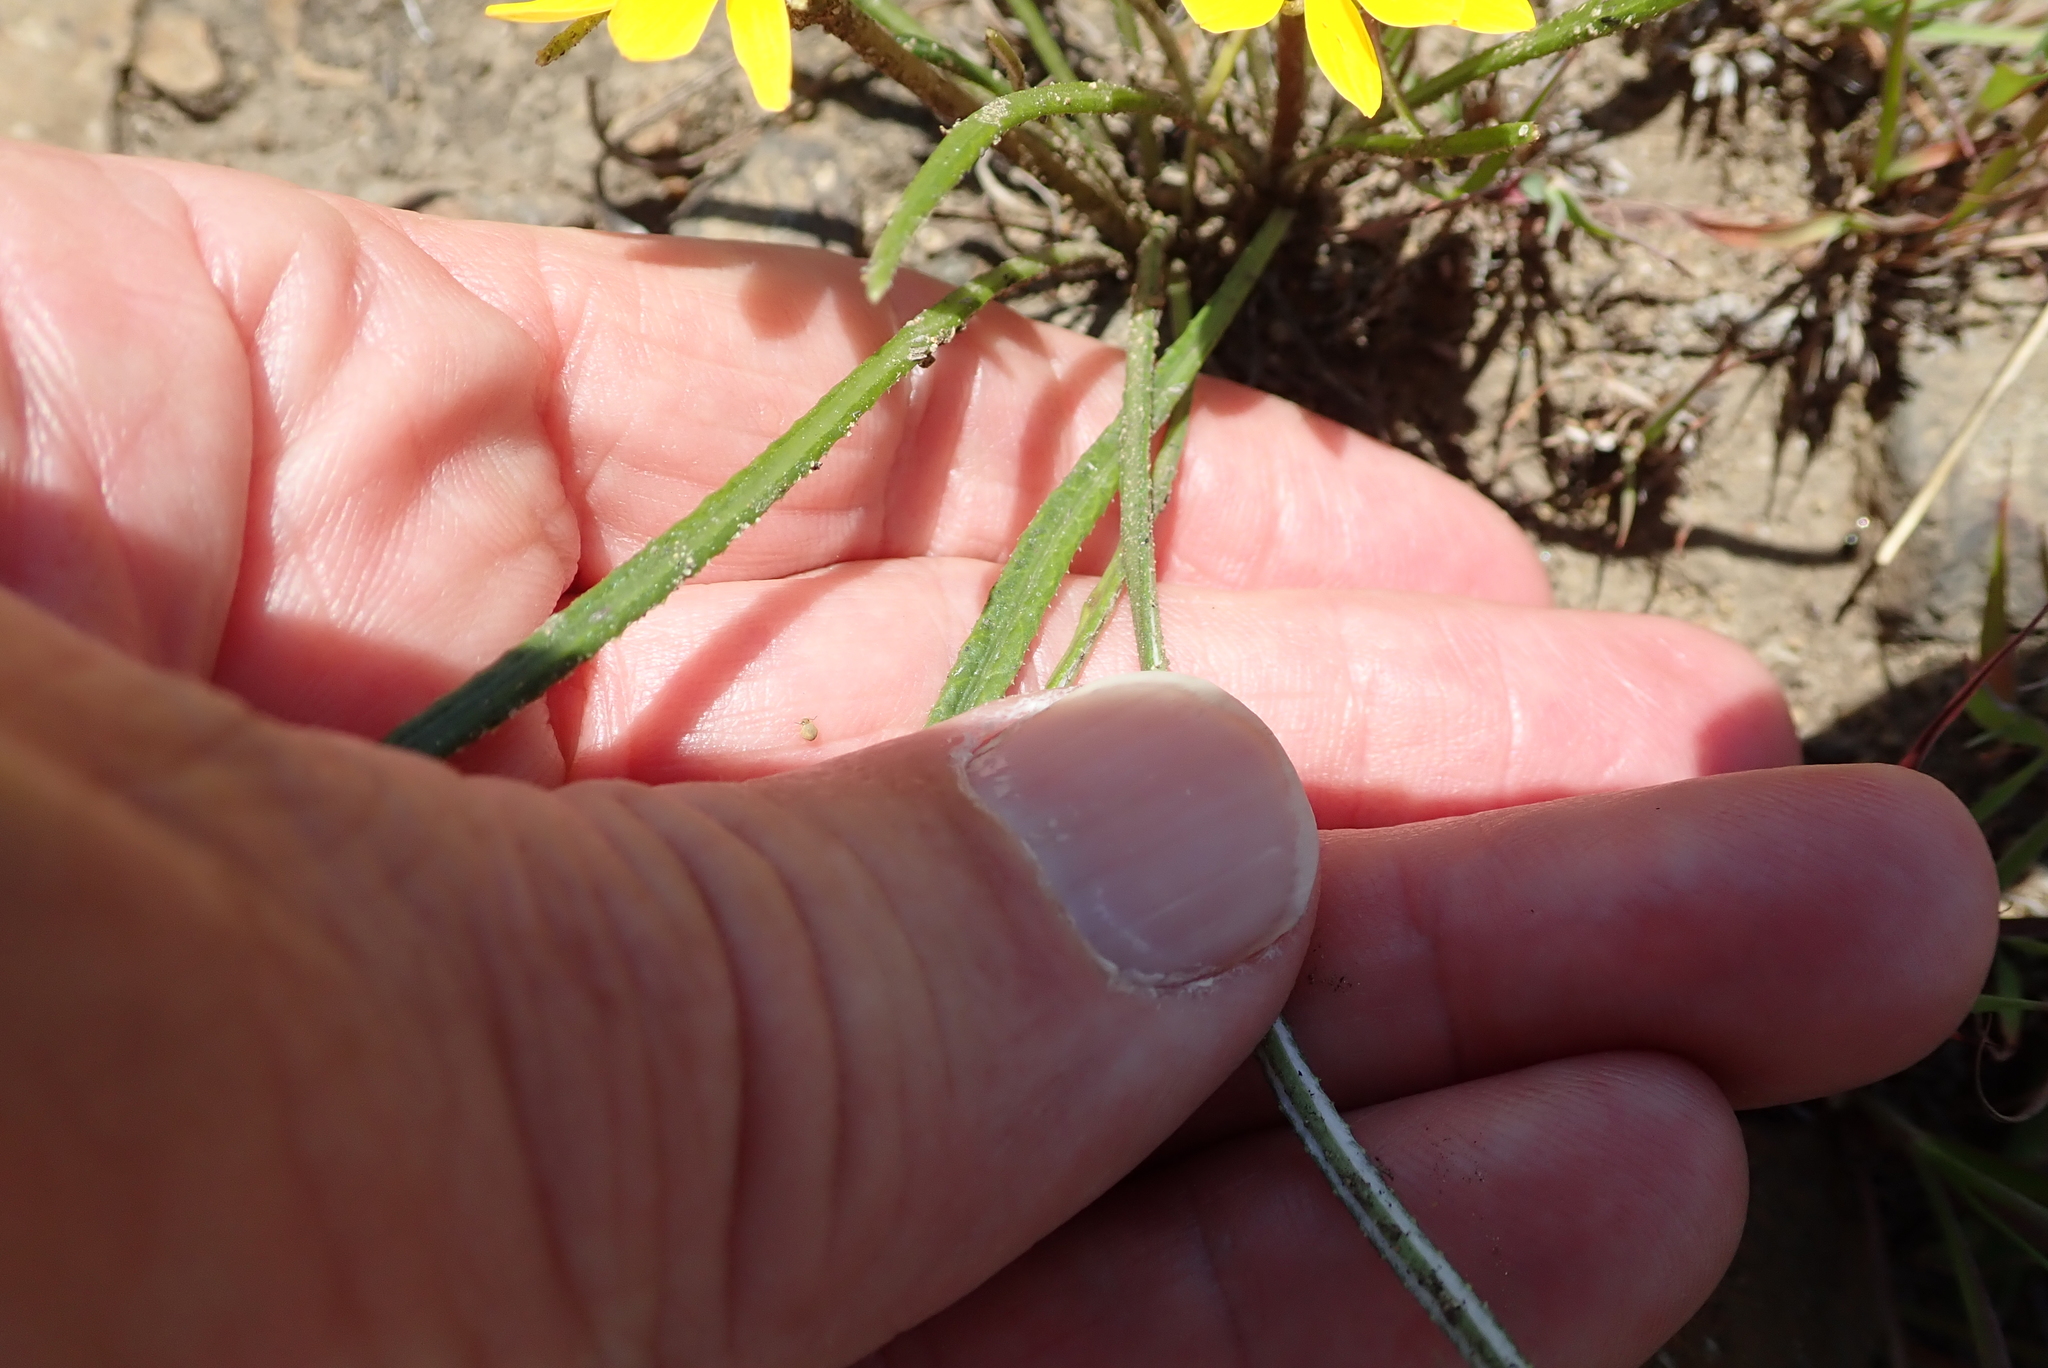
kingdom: Plantae
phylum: Tracheophyta
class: Magnoliopsida
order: Asterales
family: Asteraceae
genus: Gazania
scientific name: Gazania krebsiana
